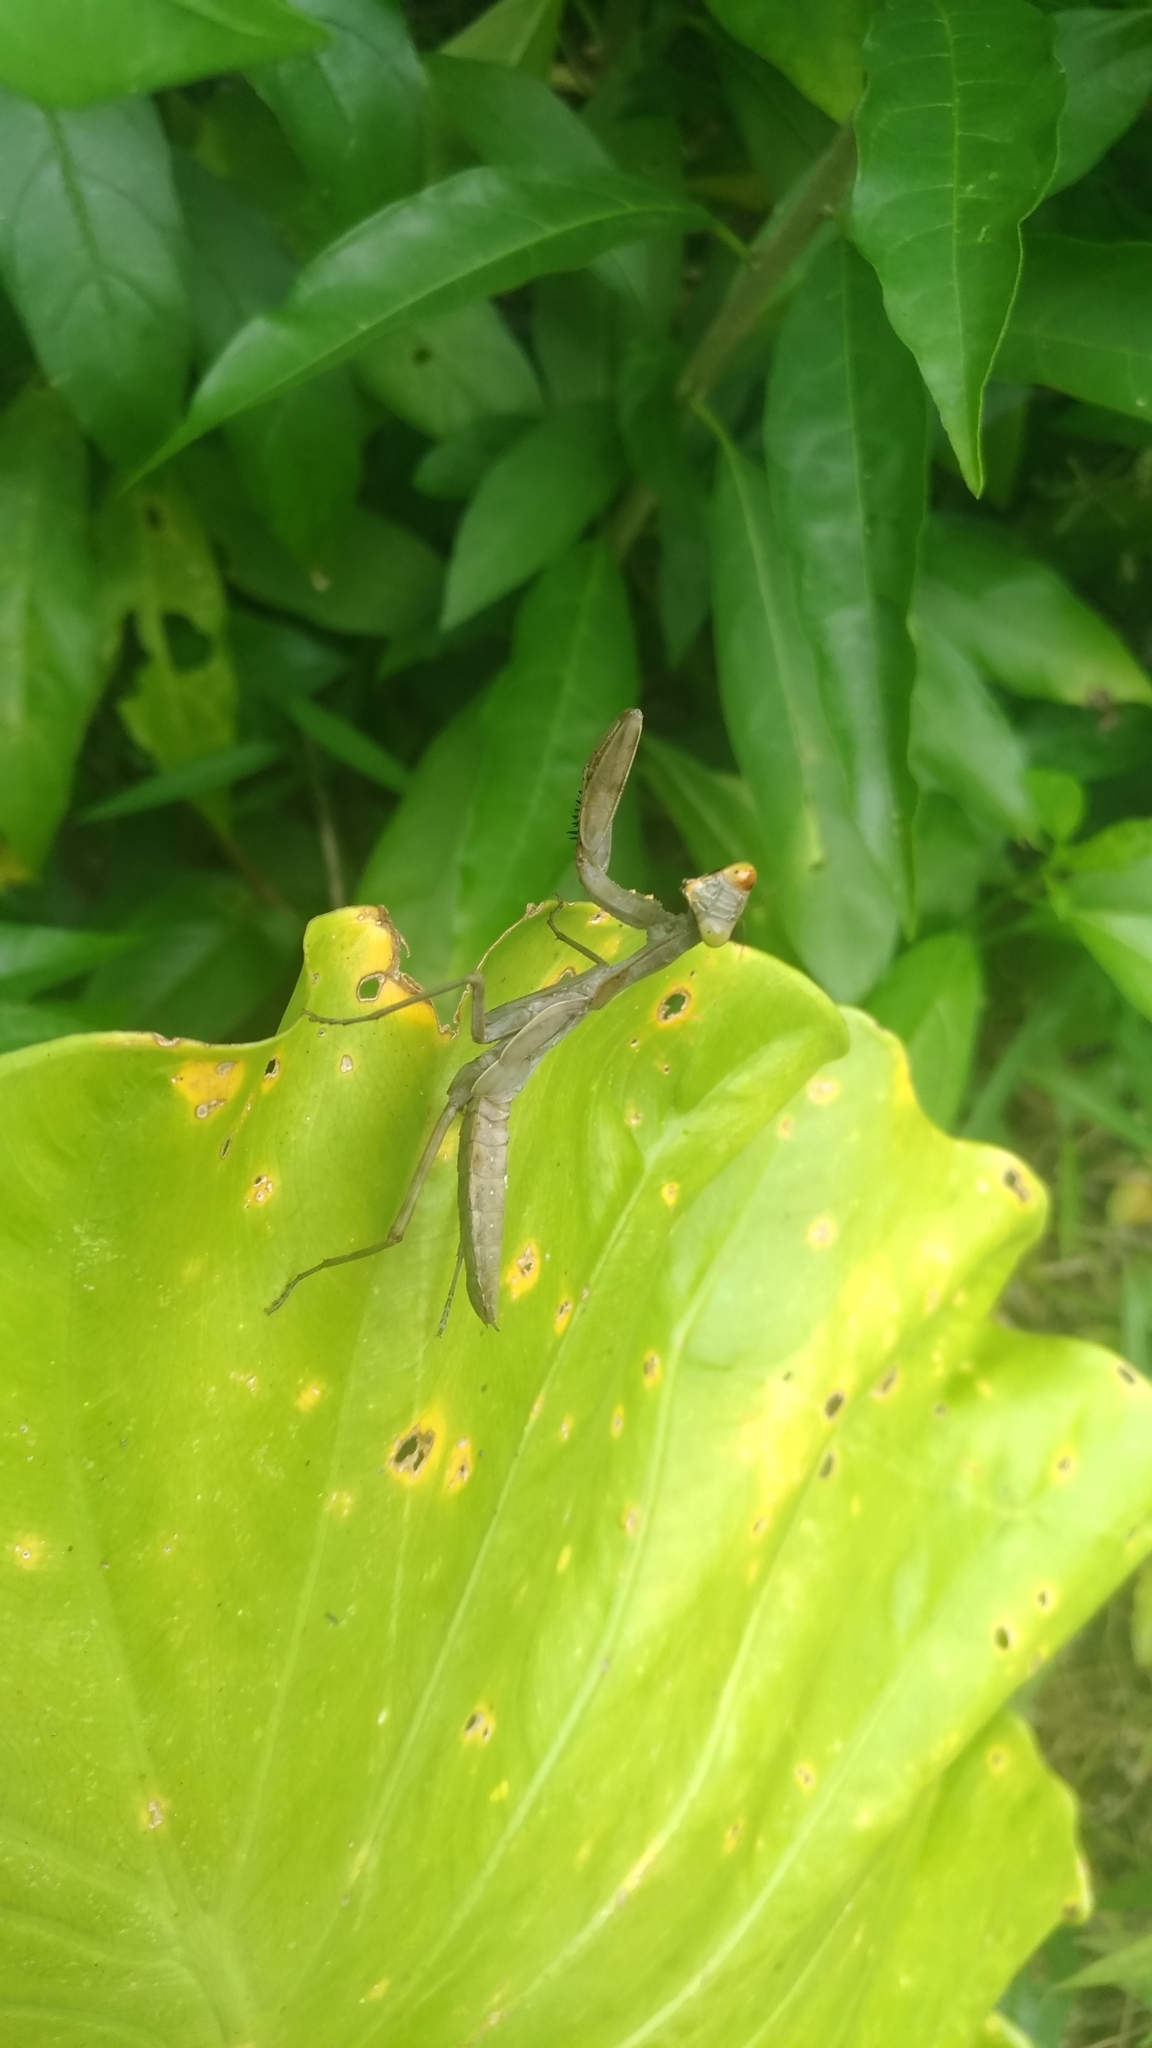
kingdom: Animalia
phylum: Arthropoda
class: Insecta
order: Mantodea
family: Mantidae
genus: Hierodula
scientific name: Hierodula patellifera
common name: Asian mantis
